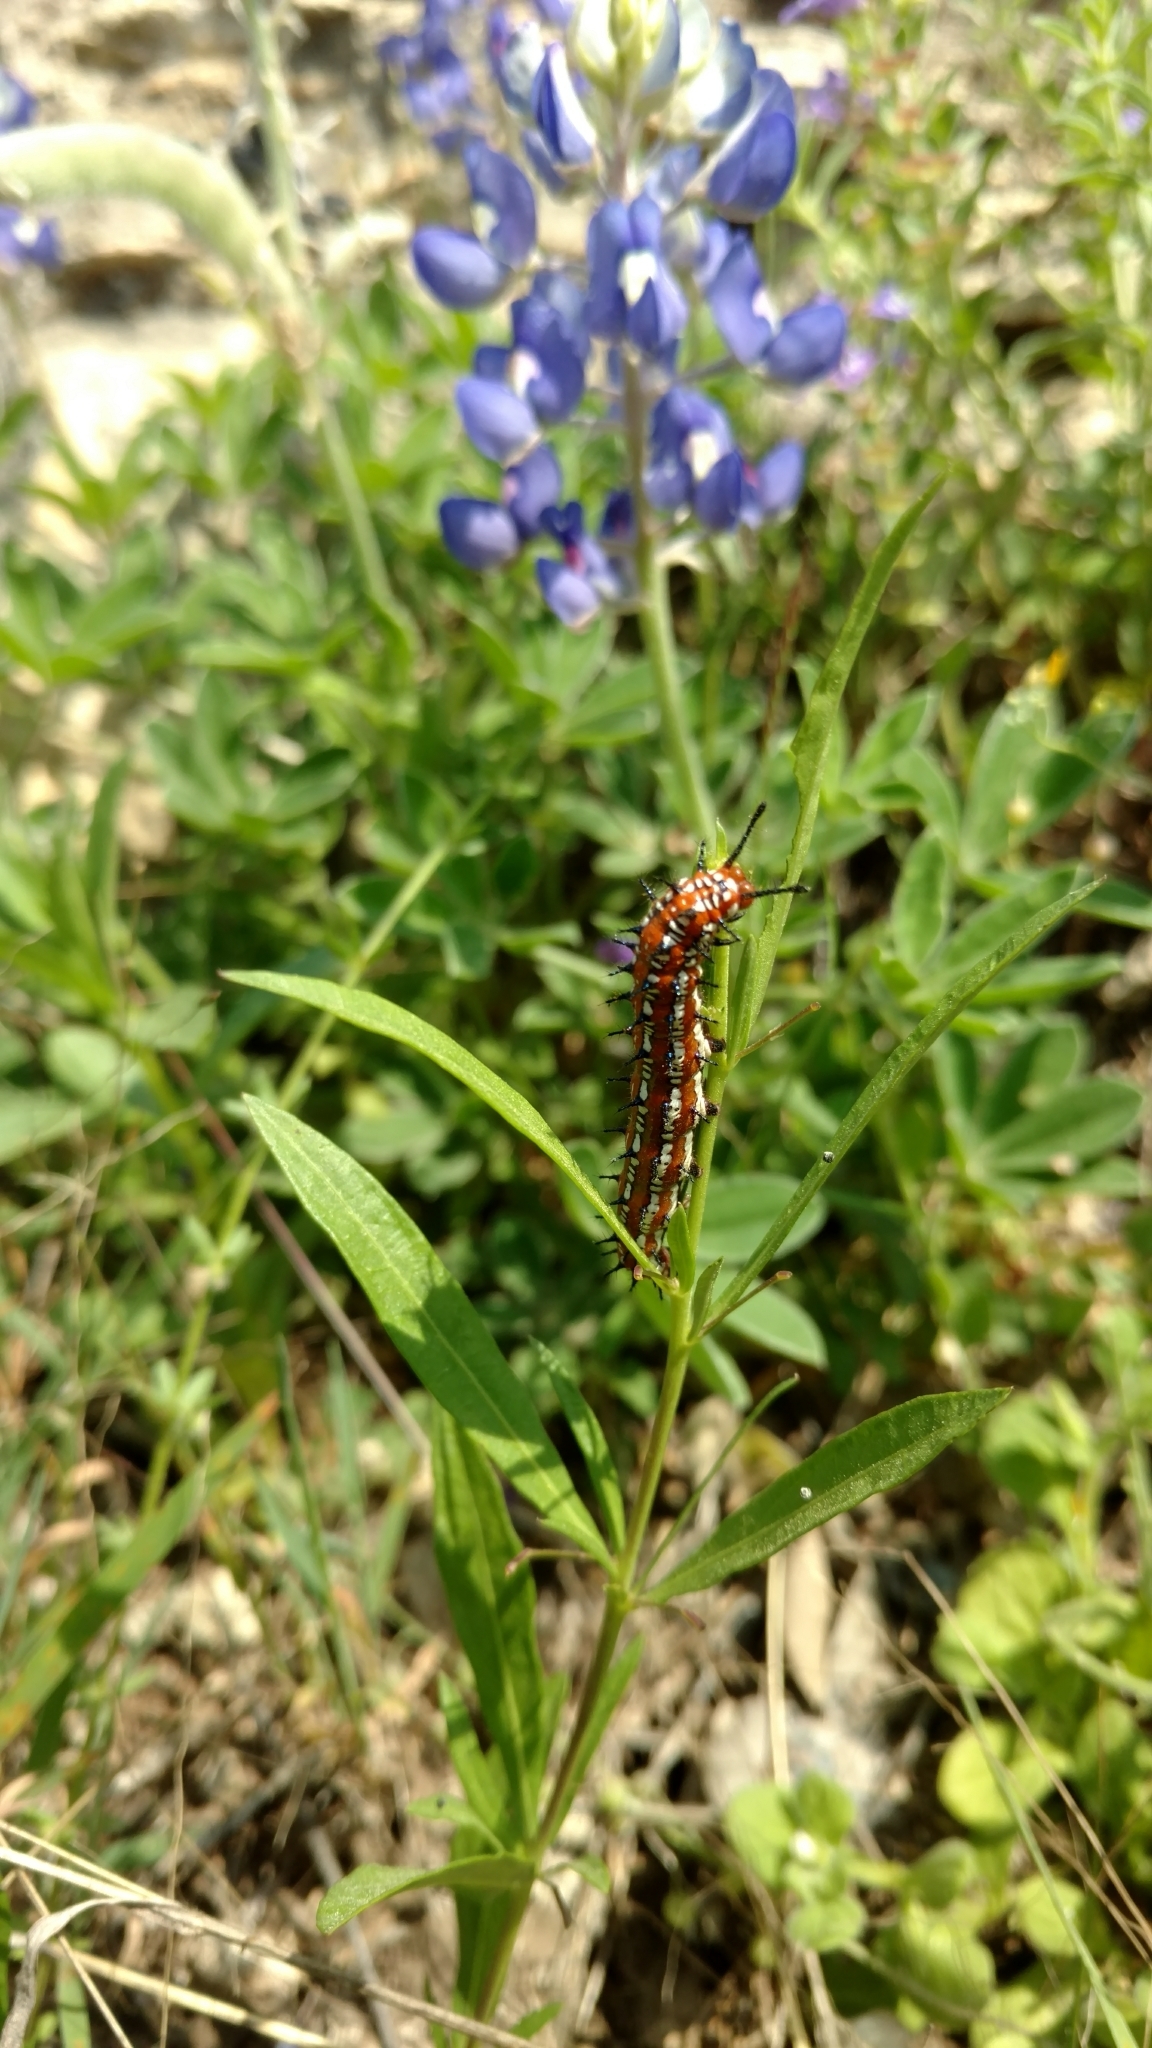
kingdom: Animalia
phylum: Arthropoda
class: Insecta
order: Lepidoptera
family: Nymphalidae
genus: Euptoieta
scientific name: Euptoieta claudia
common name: Variegated fritillary
